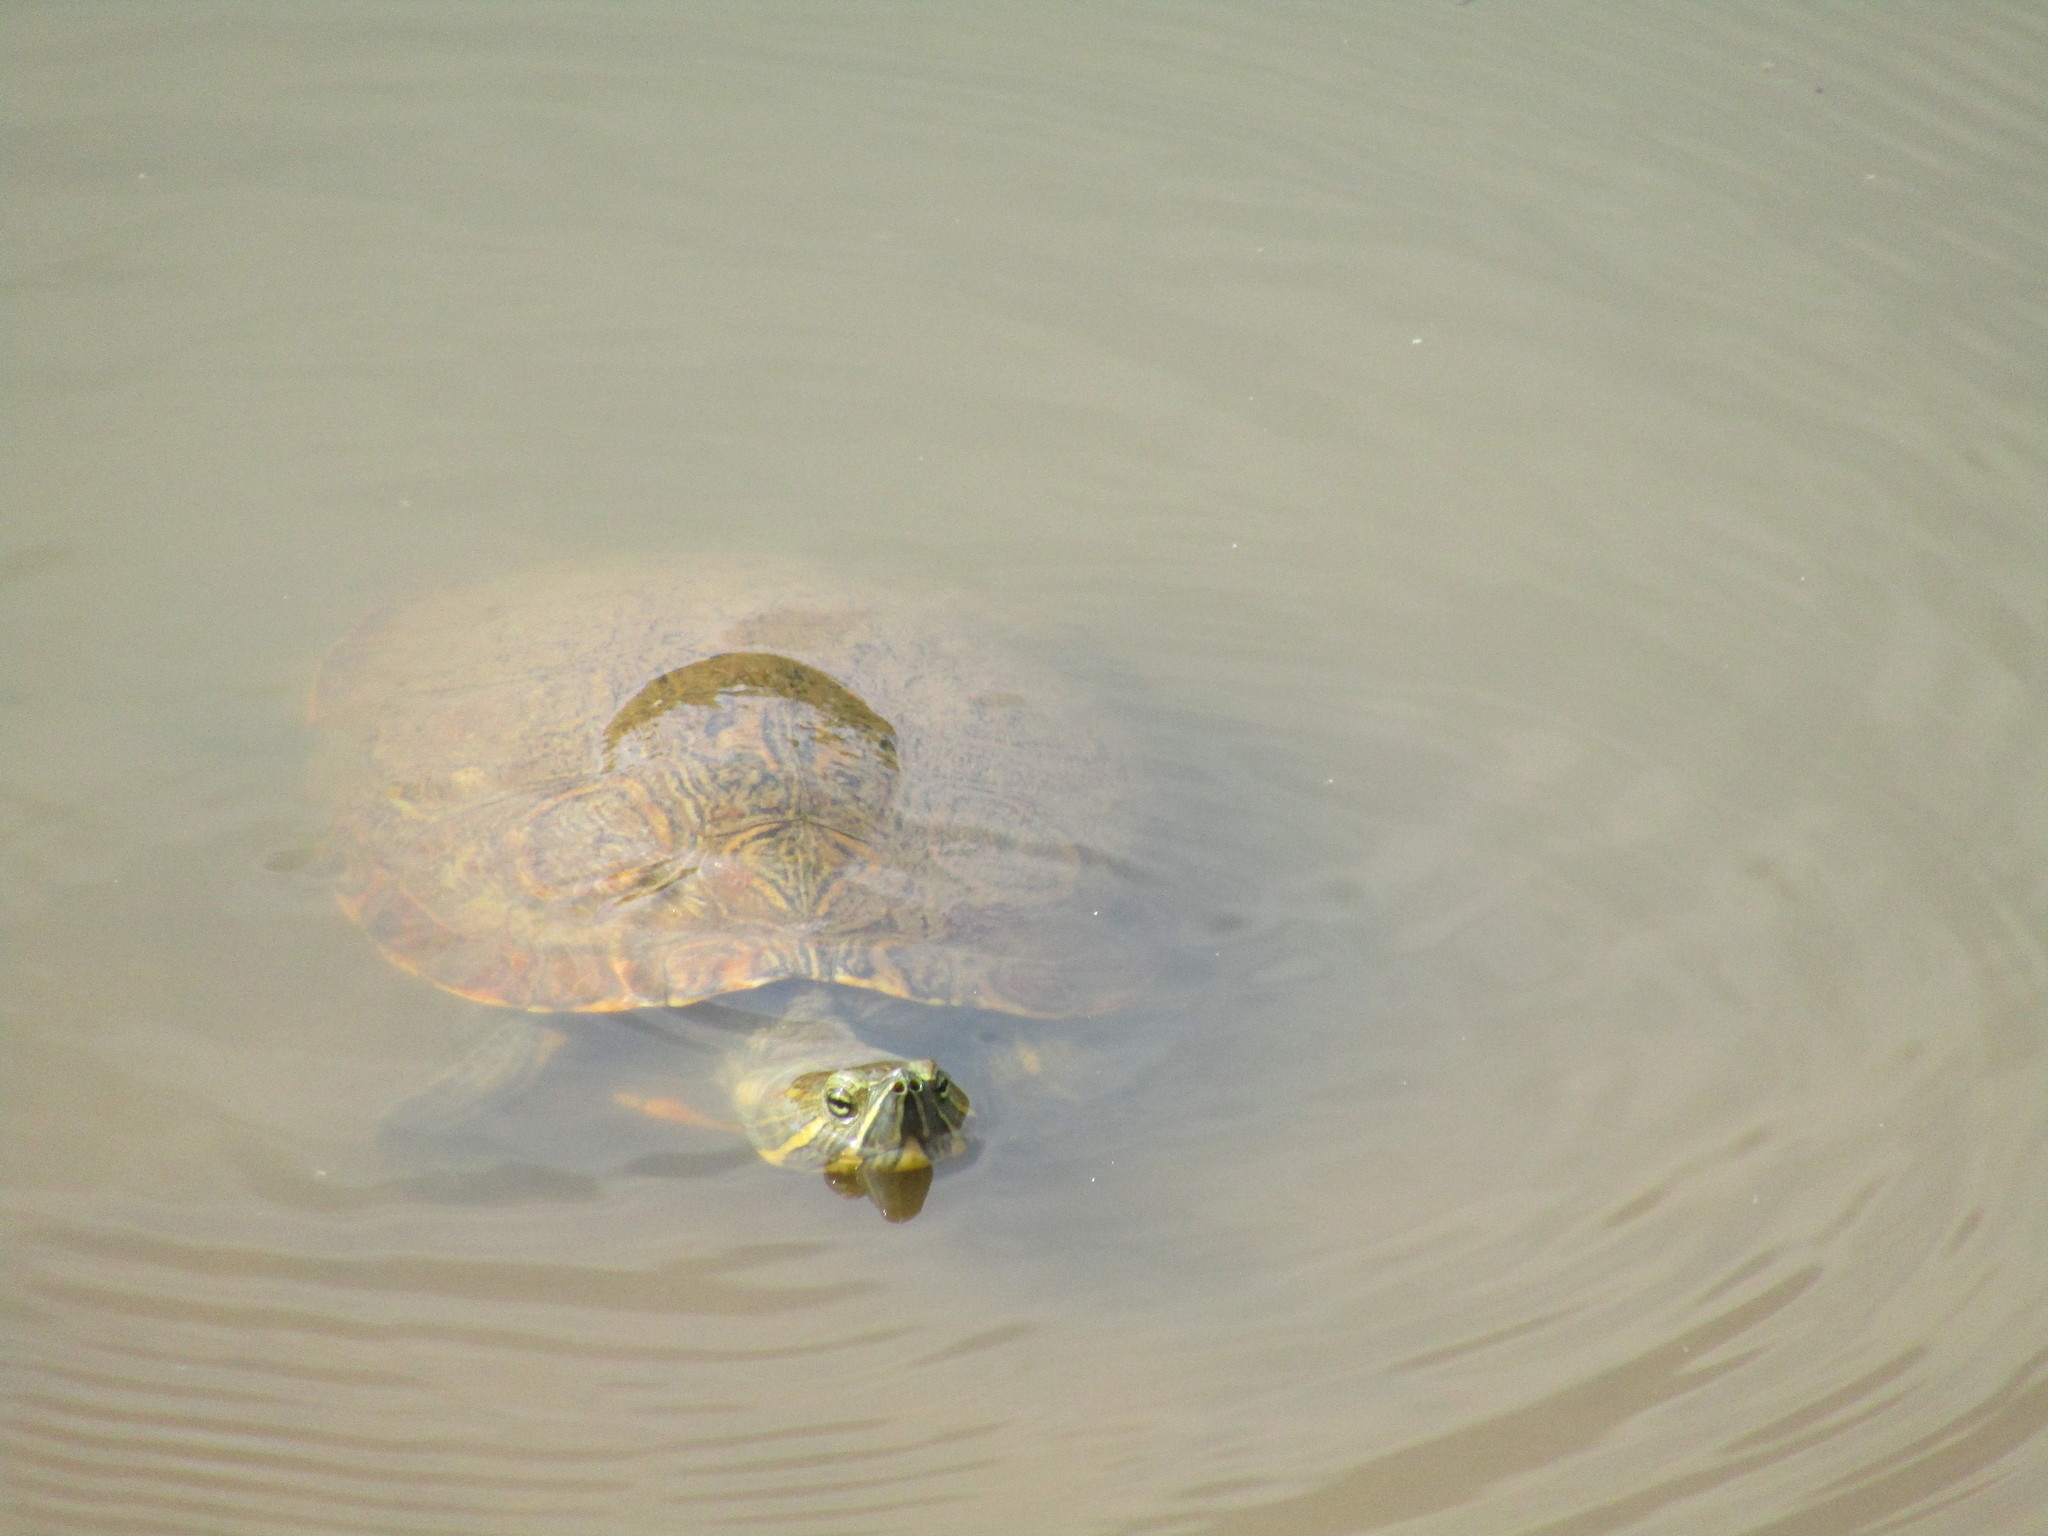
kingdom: Animalia
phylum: Chordata
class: Testudines
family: Emydidae
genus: Trachemys
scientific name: Trachemys venusta
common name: Mesoamerican slider
